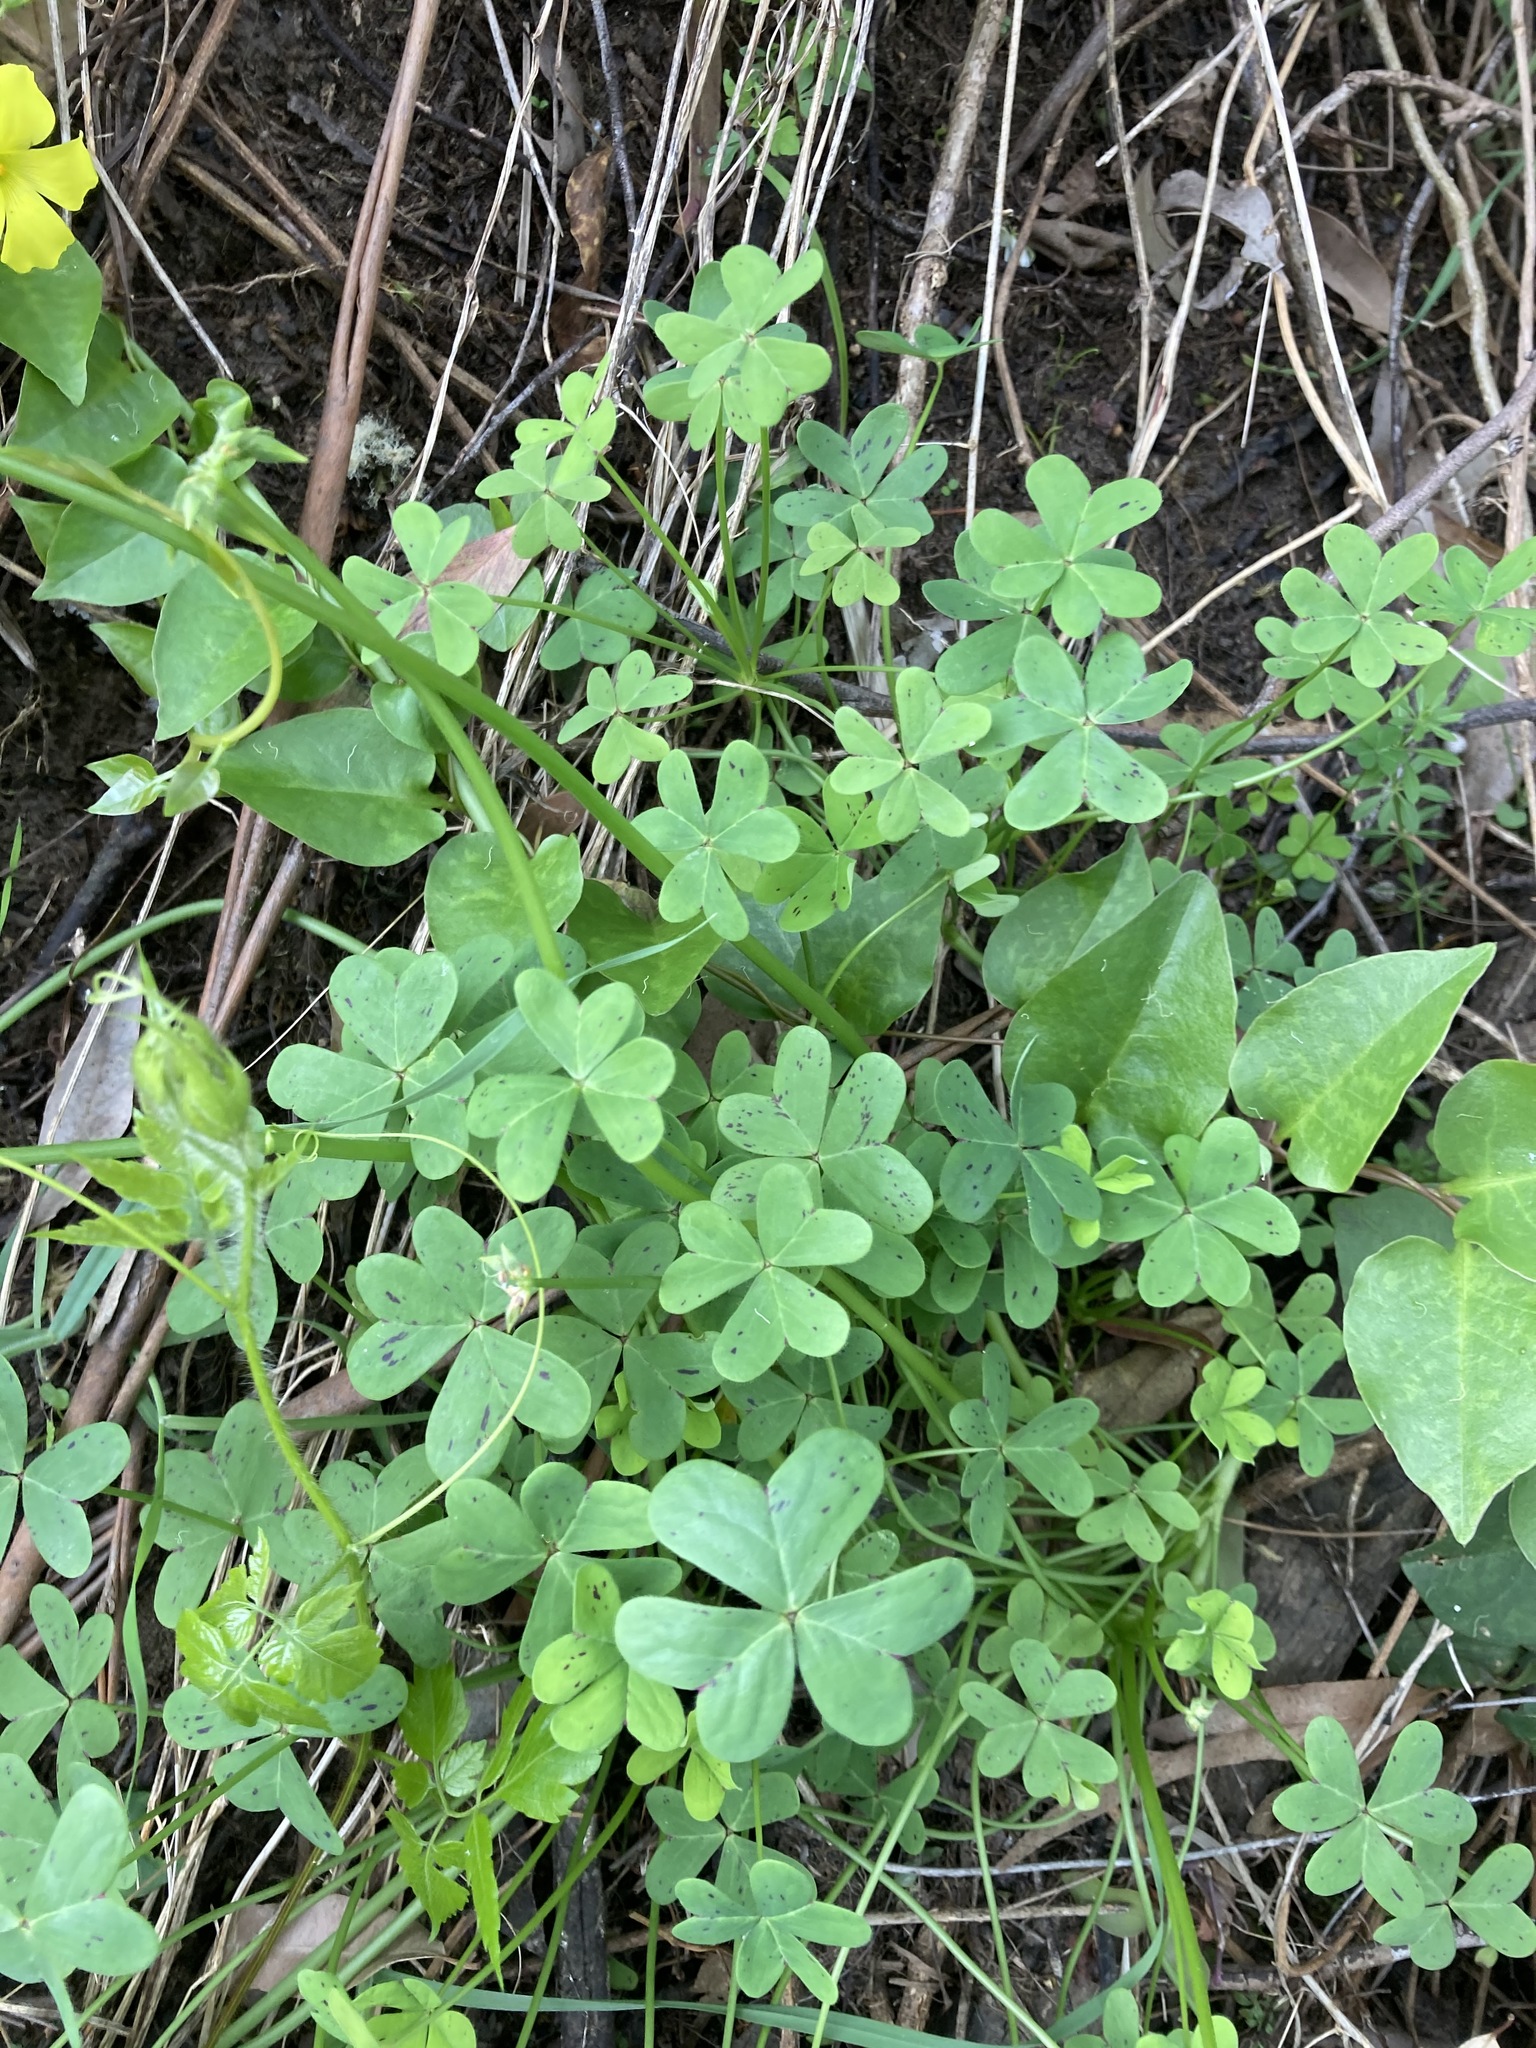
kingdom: Plantae
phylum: Tracheophyta
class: Magnoliopsida
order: Oxalidales
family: Oxalidaceae
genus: Oxalis
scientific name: Oxalis pes-caprae
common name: Bermuda-buttercup
